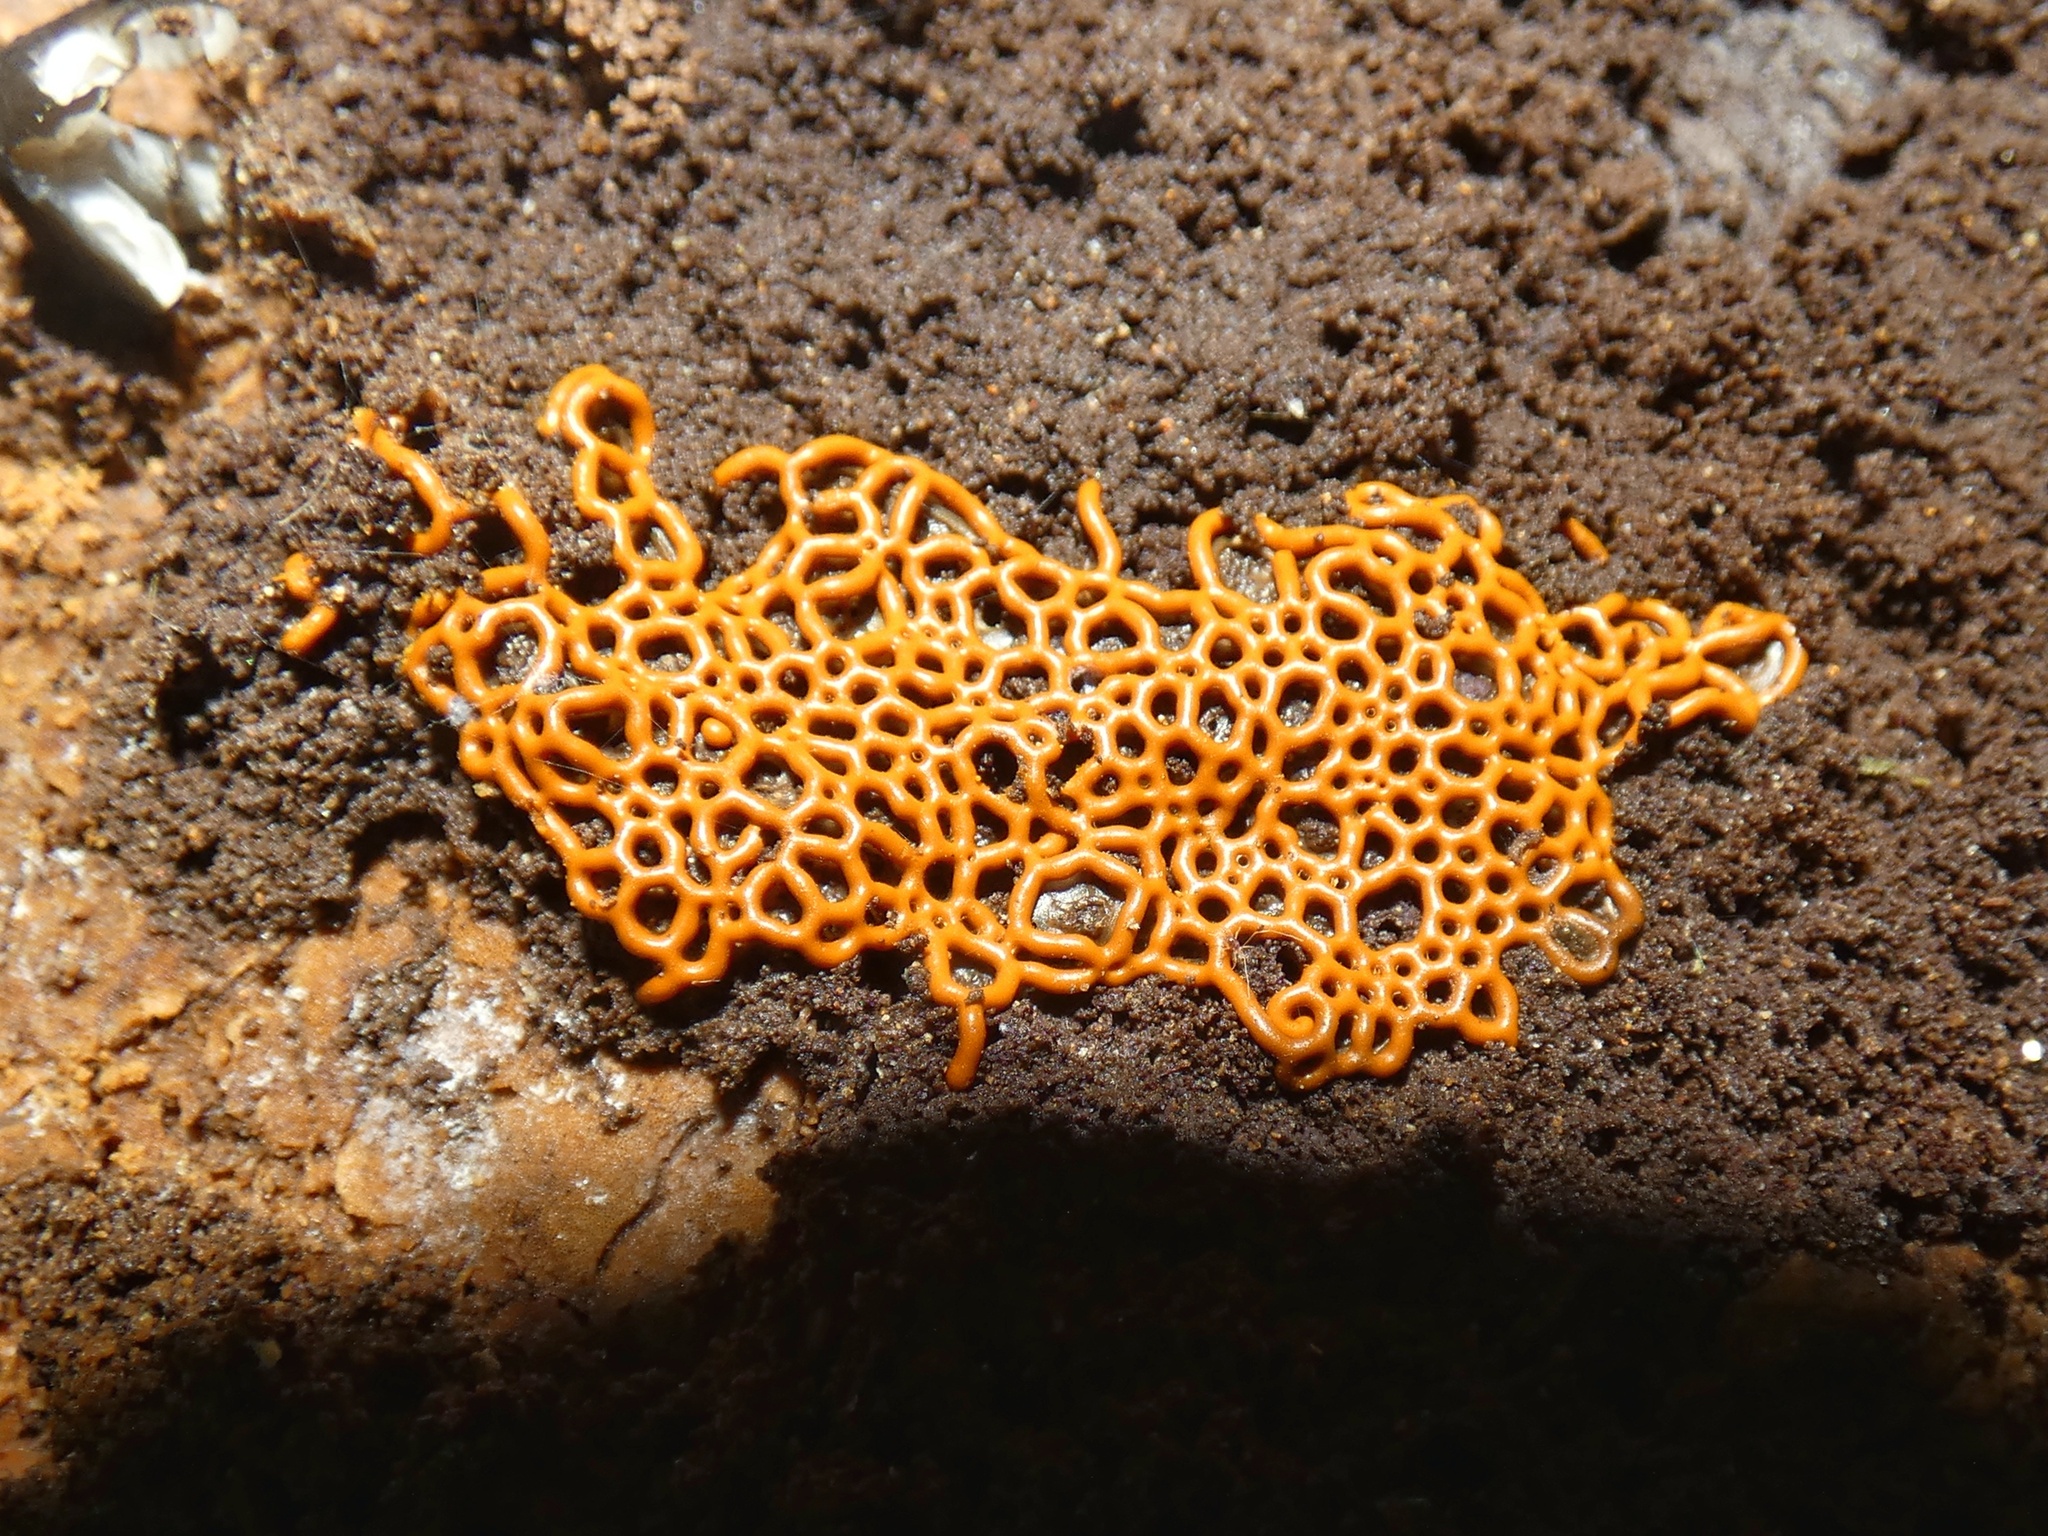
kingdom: Protozoa
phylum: Mycetozoa
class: Myxomycetes
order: Trichiales
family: Arcyriaceae
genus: Hemitrichia
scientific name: Hemitrichia serpula
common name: Pretzel slime mold
